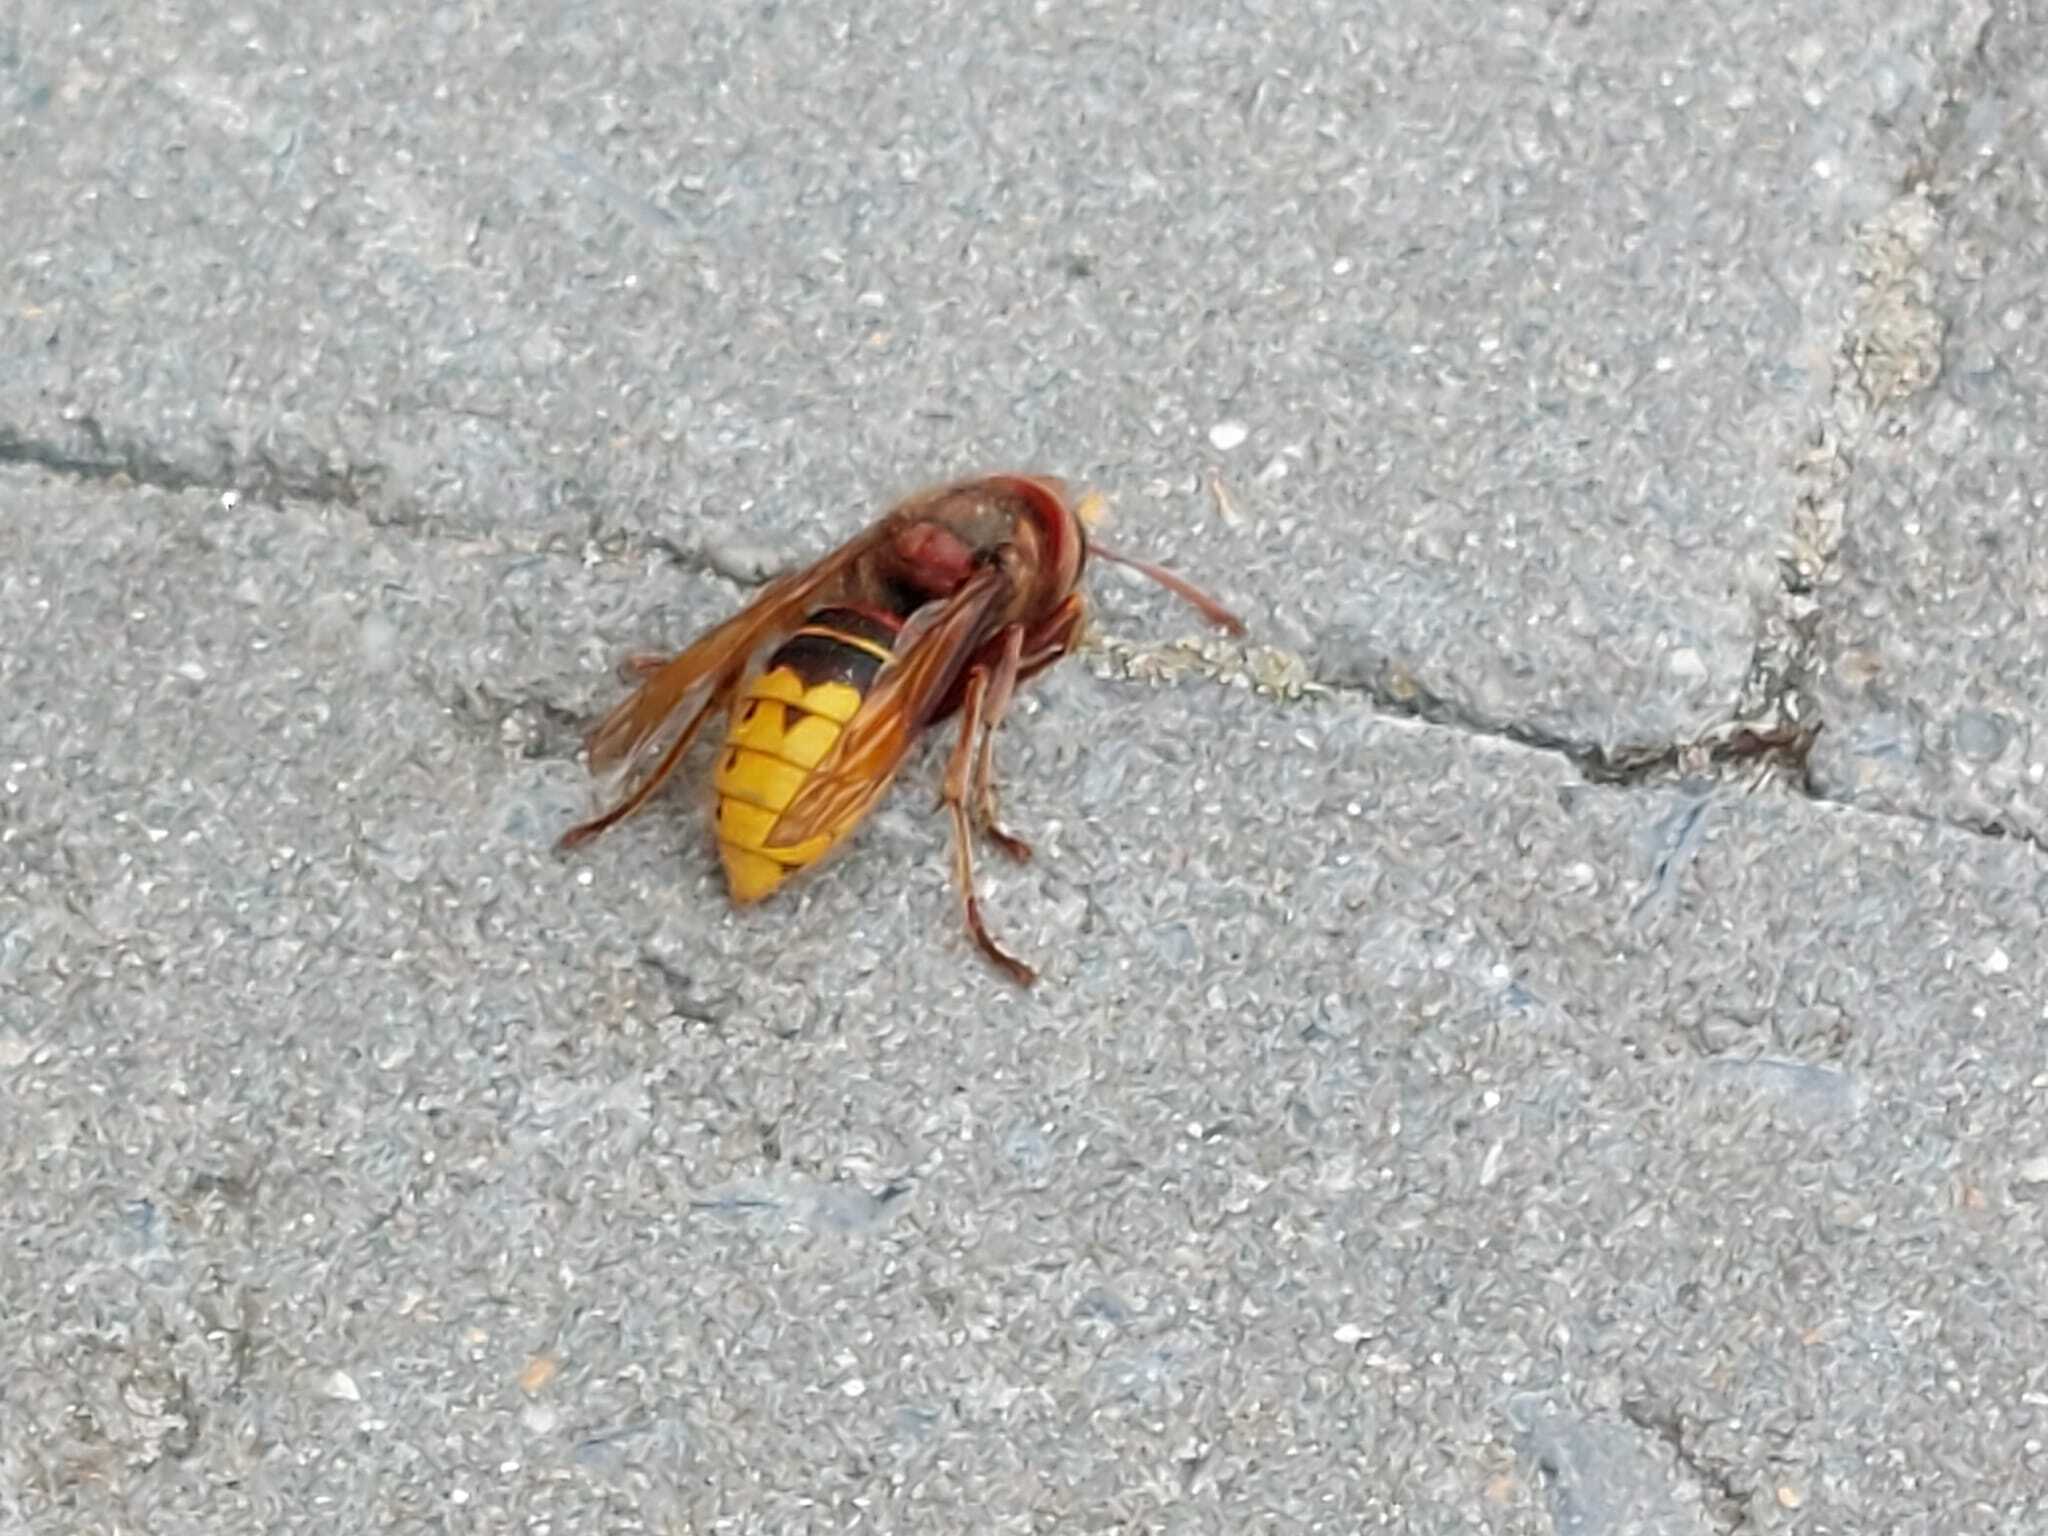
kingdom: Animalia
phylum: Arthropoda
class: Insecta
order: Hymenoptera
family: Vespidae
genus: Vespa
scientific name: Vespa crabro
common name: Hornet
